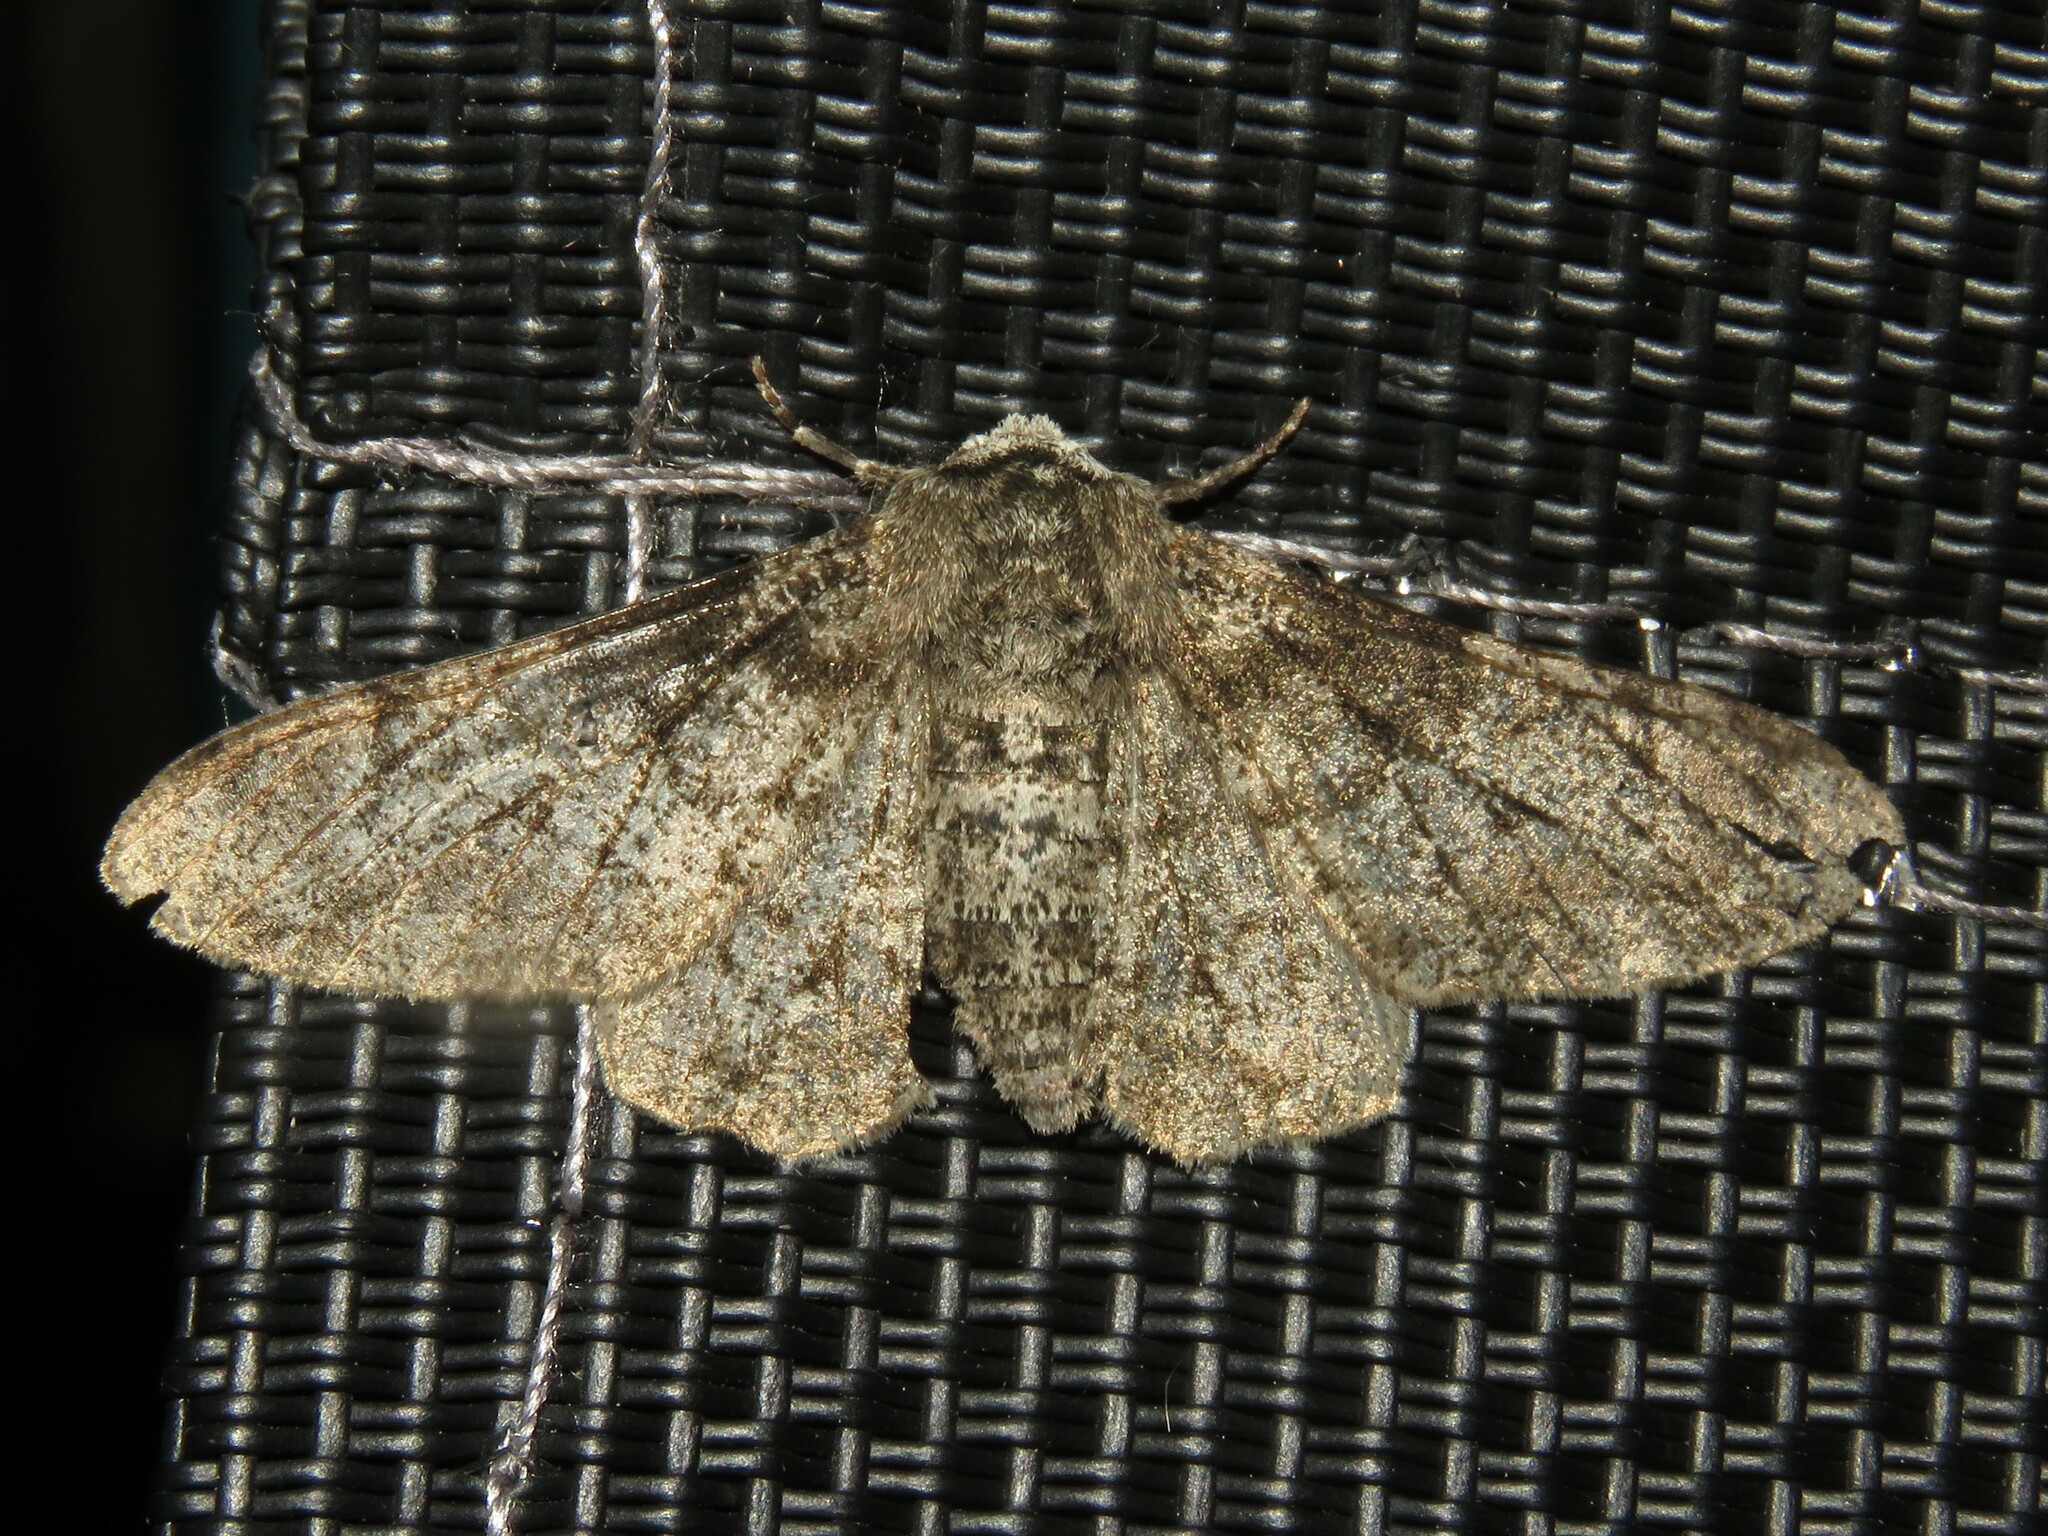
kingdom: Animalia
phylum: Arthropoda
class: Insecta
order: Lepidoptera
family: Geometridae
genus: Biston
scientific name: Biston betularia
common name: Peppered moth
